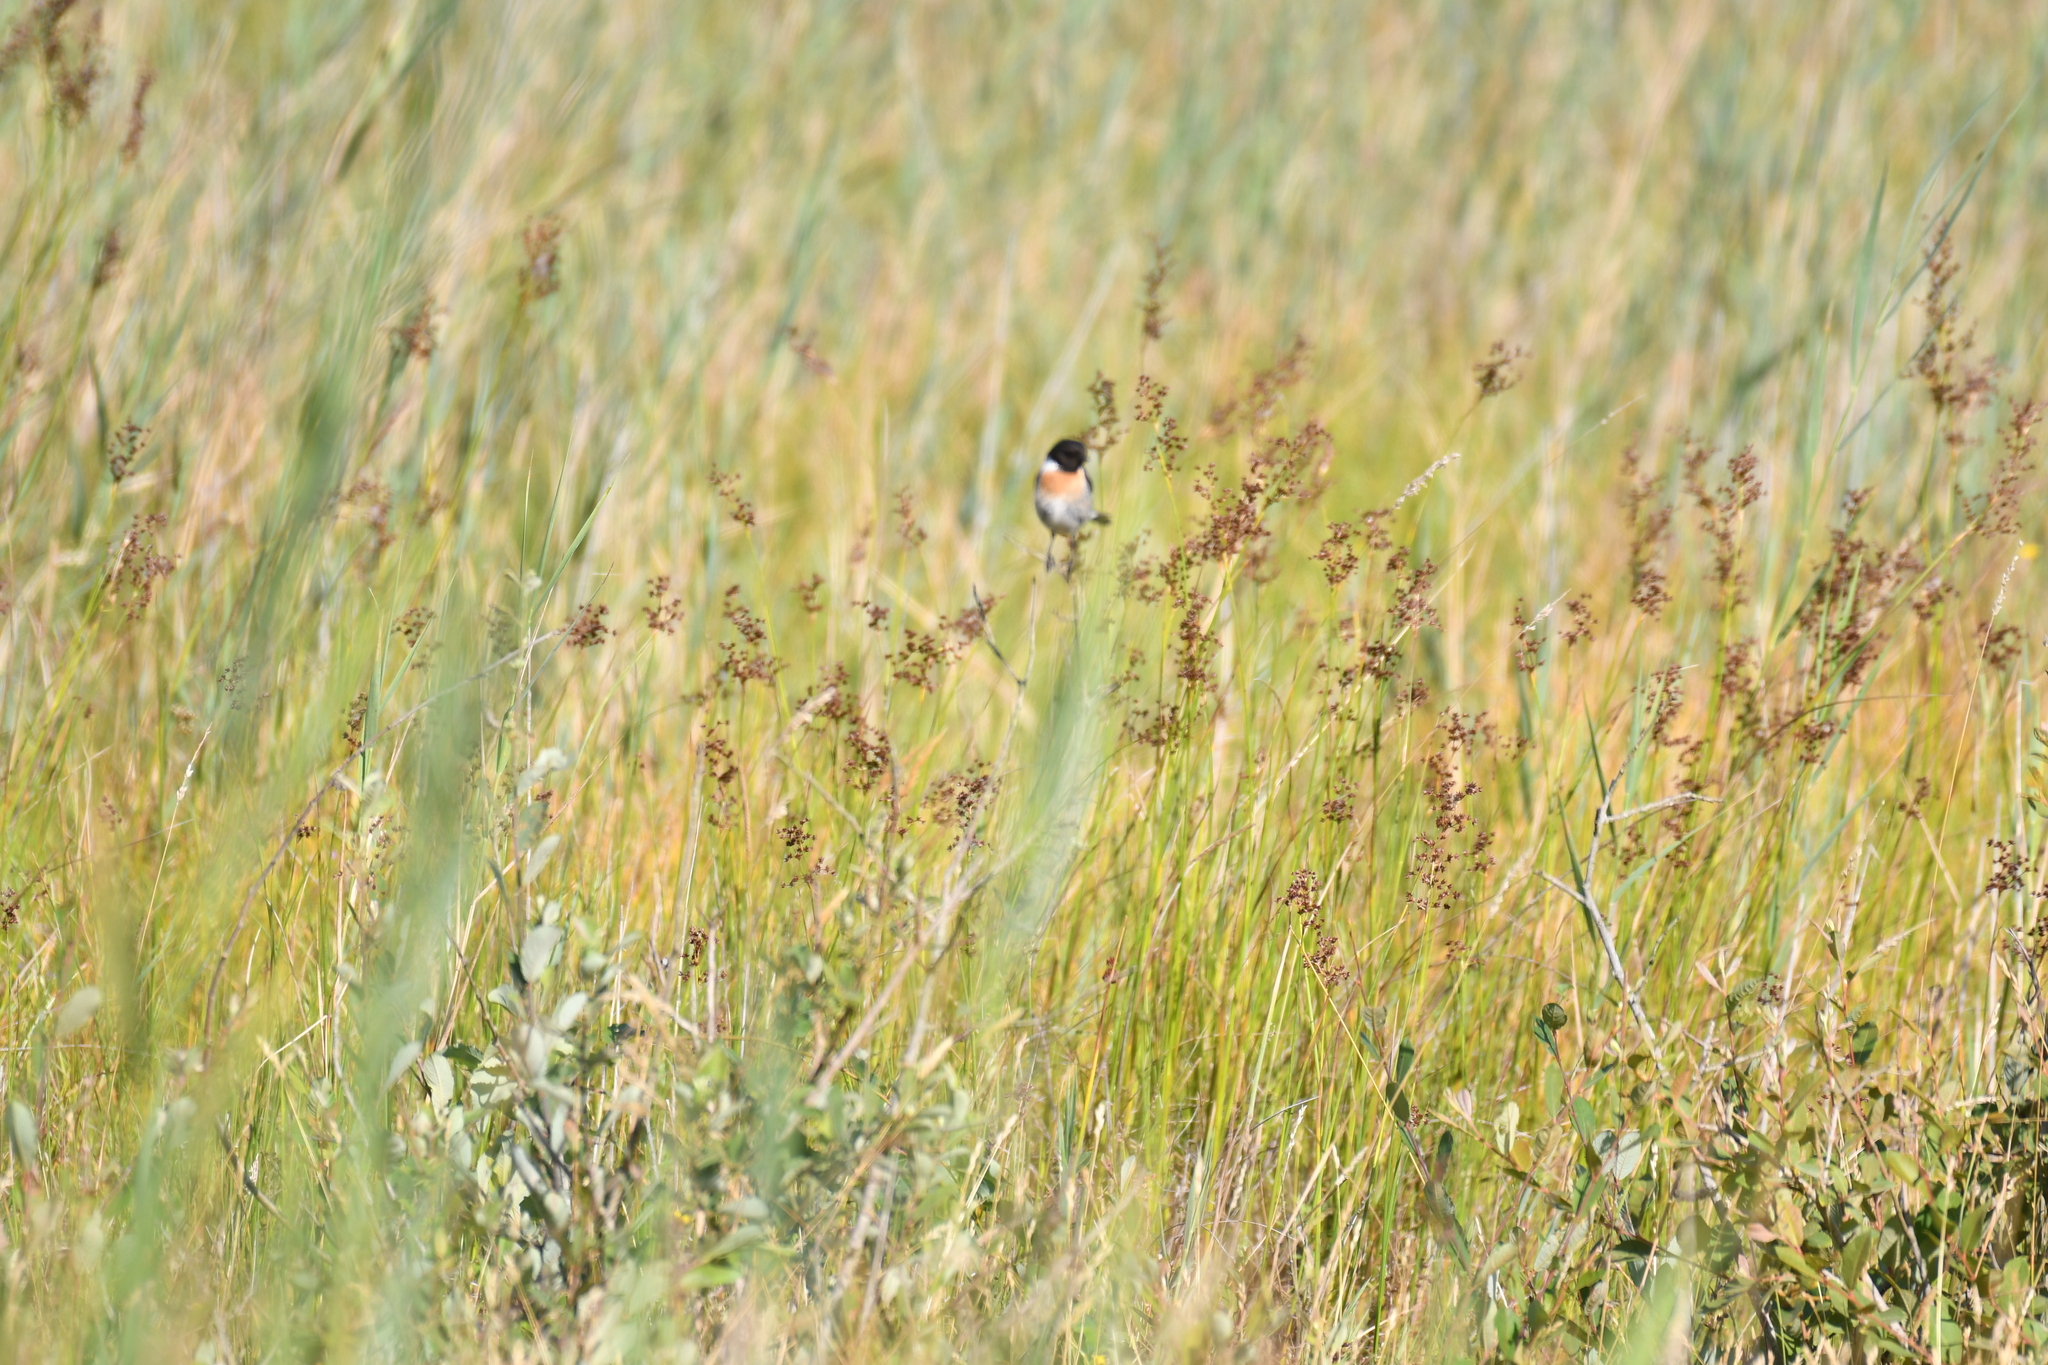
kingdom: Animalia
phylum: Chordata
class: Aves
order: Passeriformes
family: Muscicapidae
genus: Saxicola
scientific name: Saxicola rubicola
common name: European stonechat
